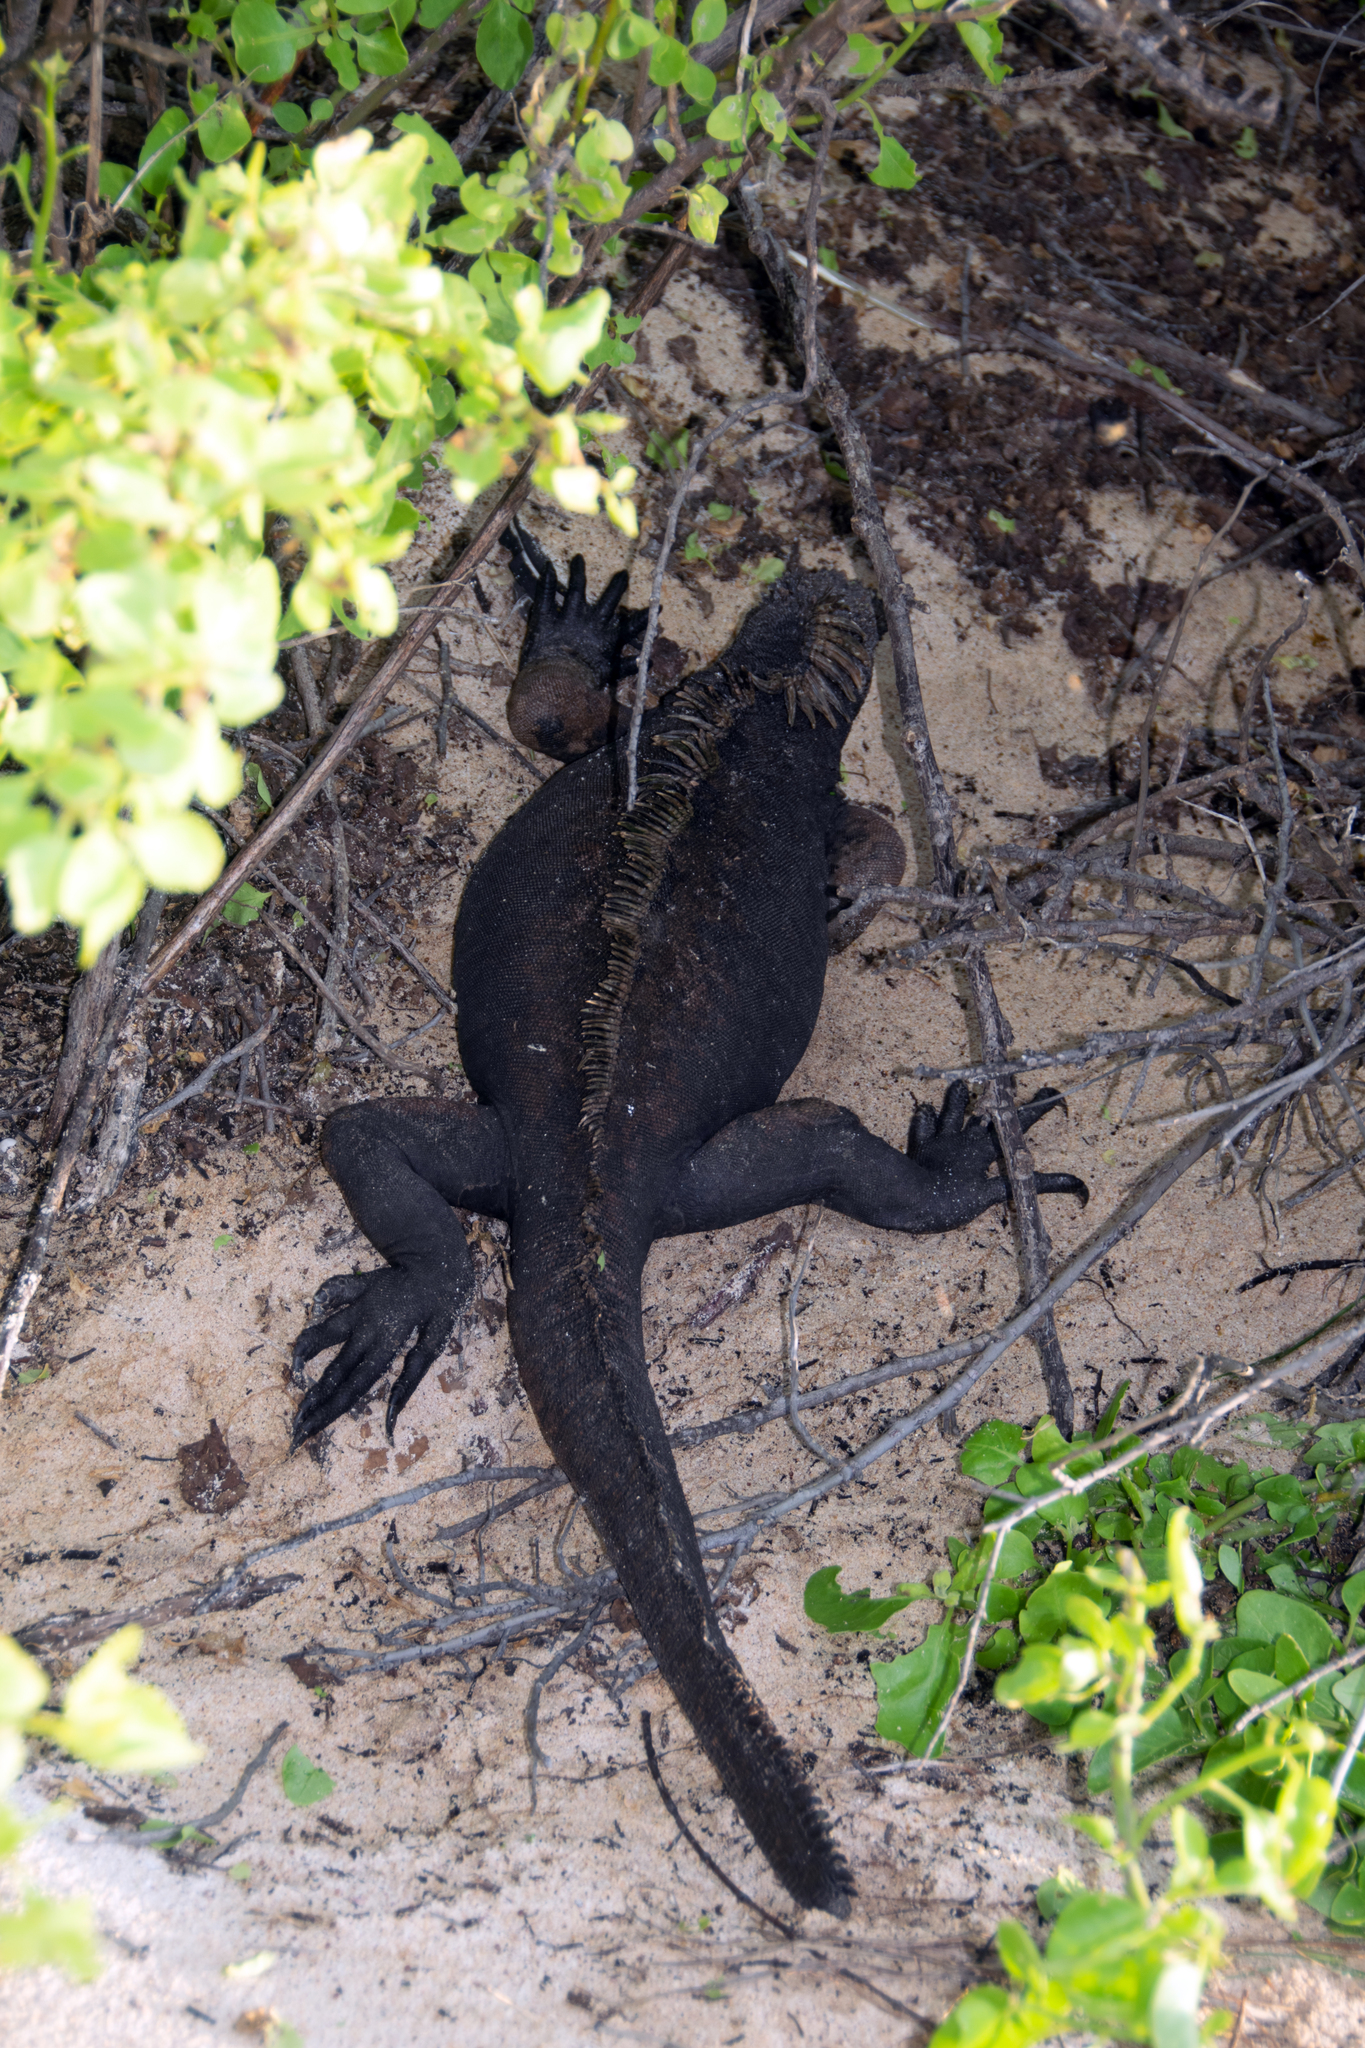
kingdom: Animalia
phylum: Chordata
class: Squamata
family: Iguanidae
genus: Amblyrhynchus
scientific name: Amblyrhynchus cristatus
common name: Marine iguana
